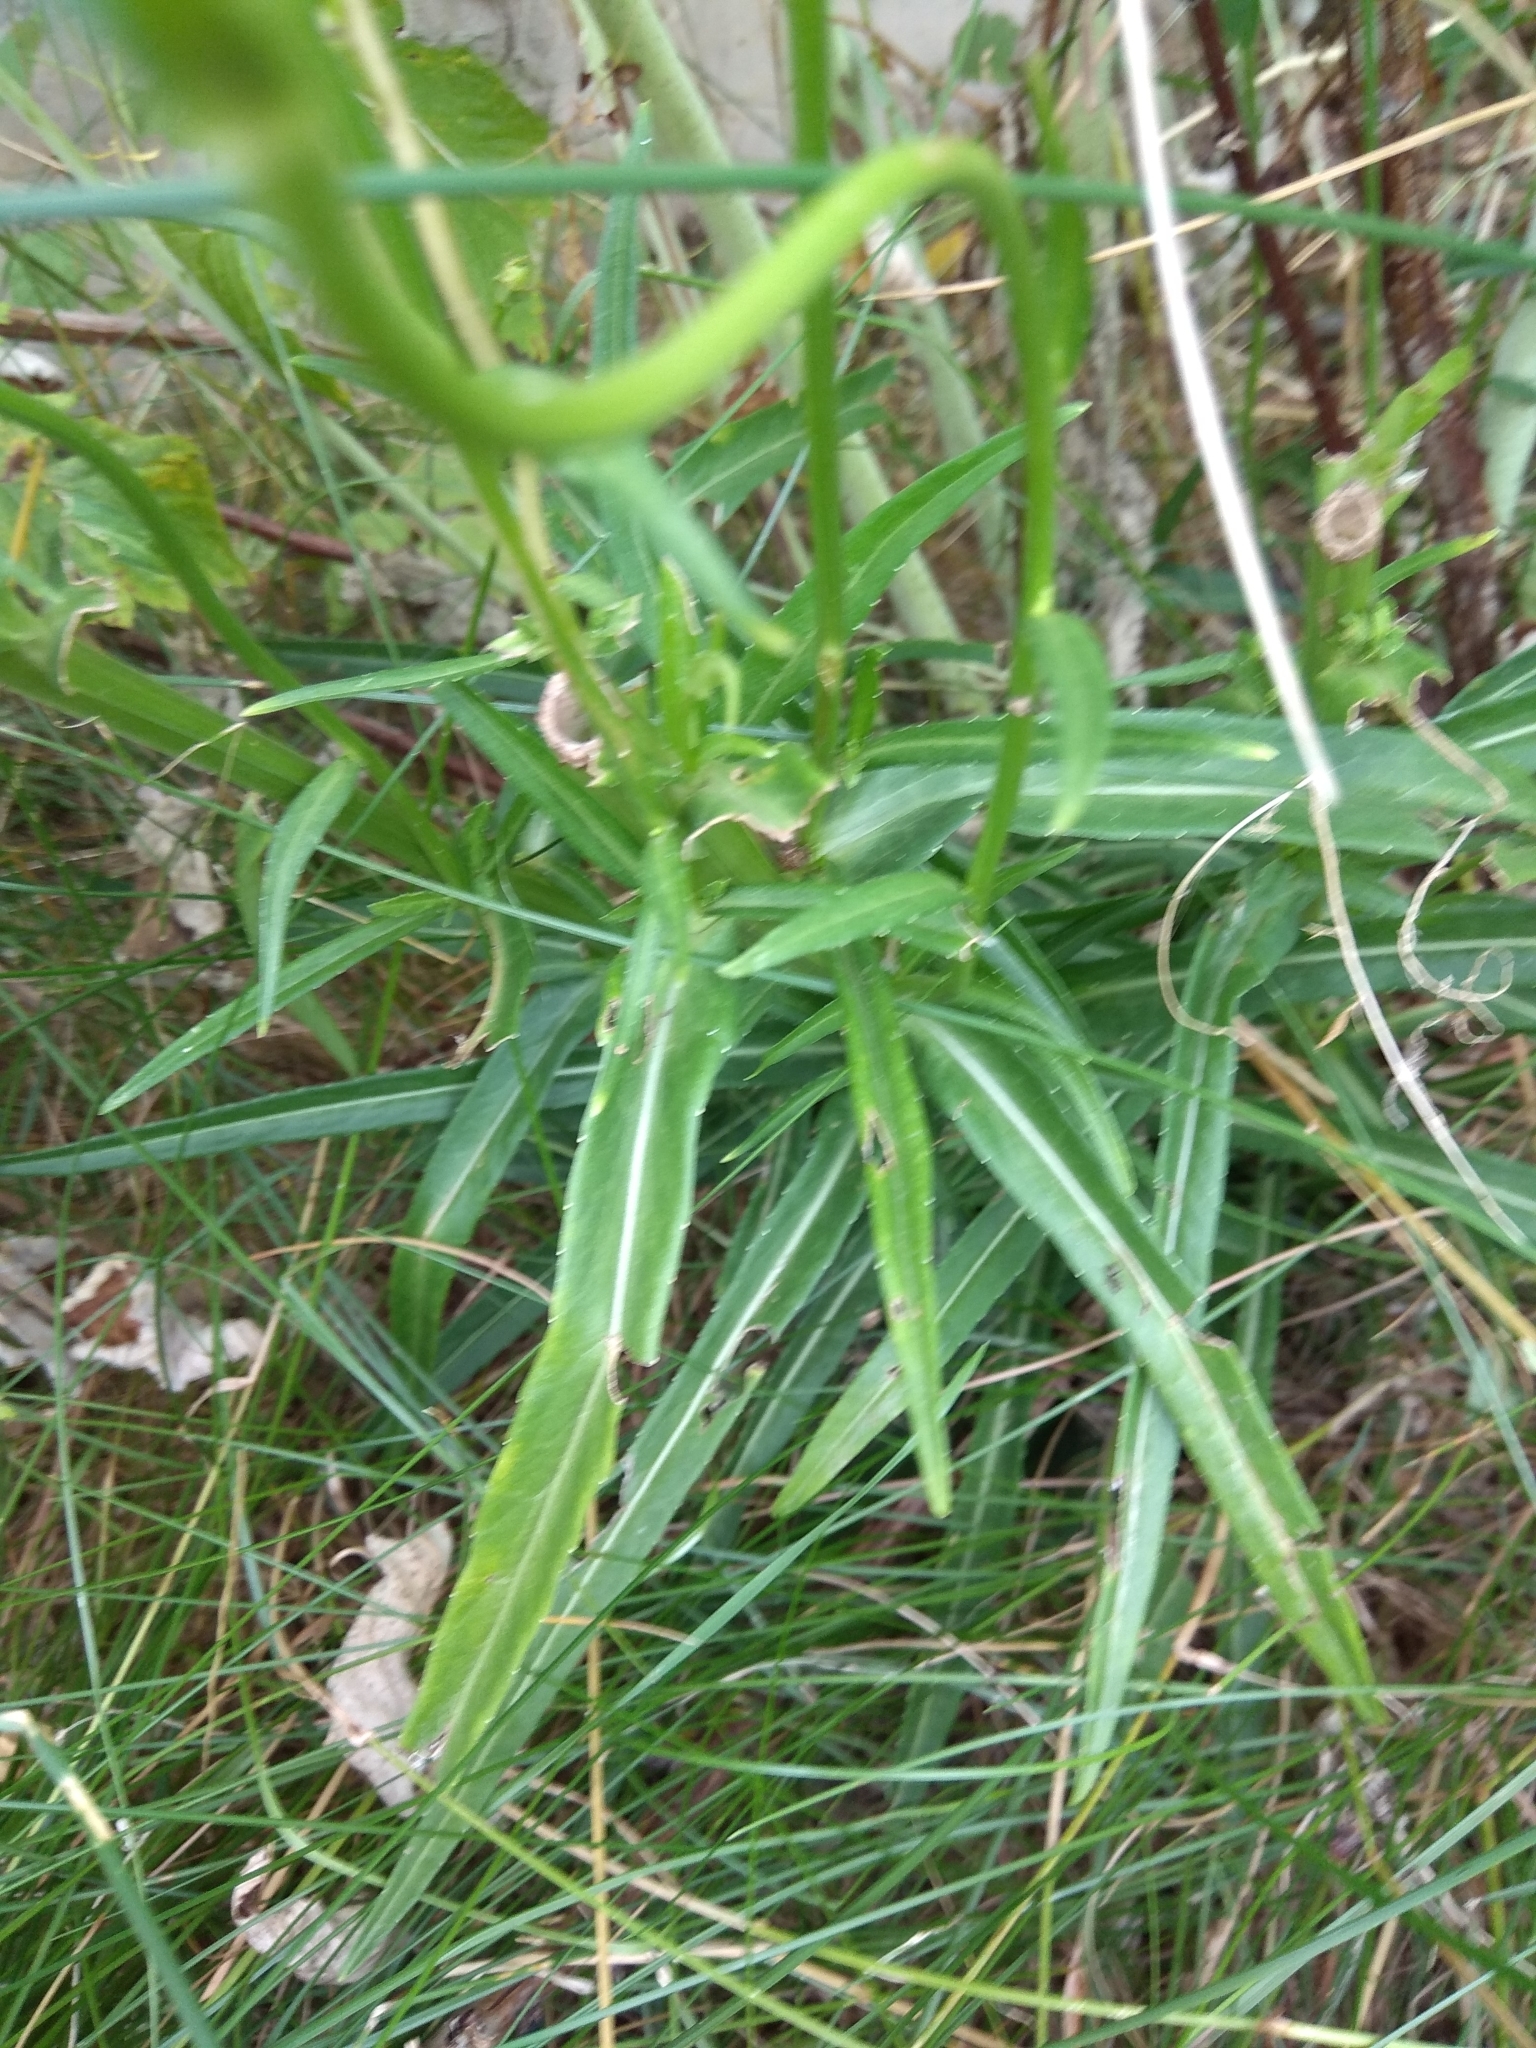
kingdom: Plantae
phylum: Tracheophyta
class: Magnoliopsida
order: Asterales
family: Campanulaceae
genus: Campanula
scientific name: Campanula persicifolia
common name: Peach-leaved bellflower
